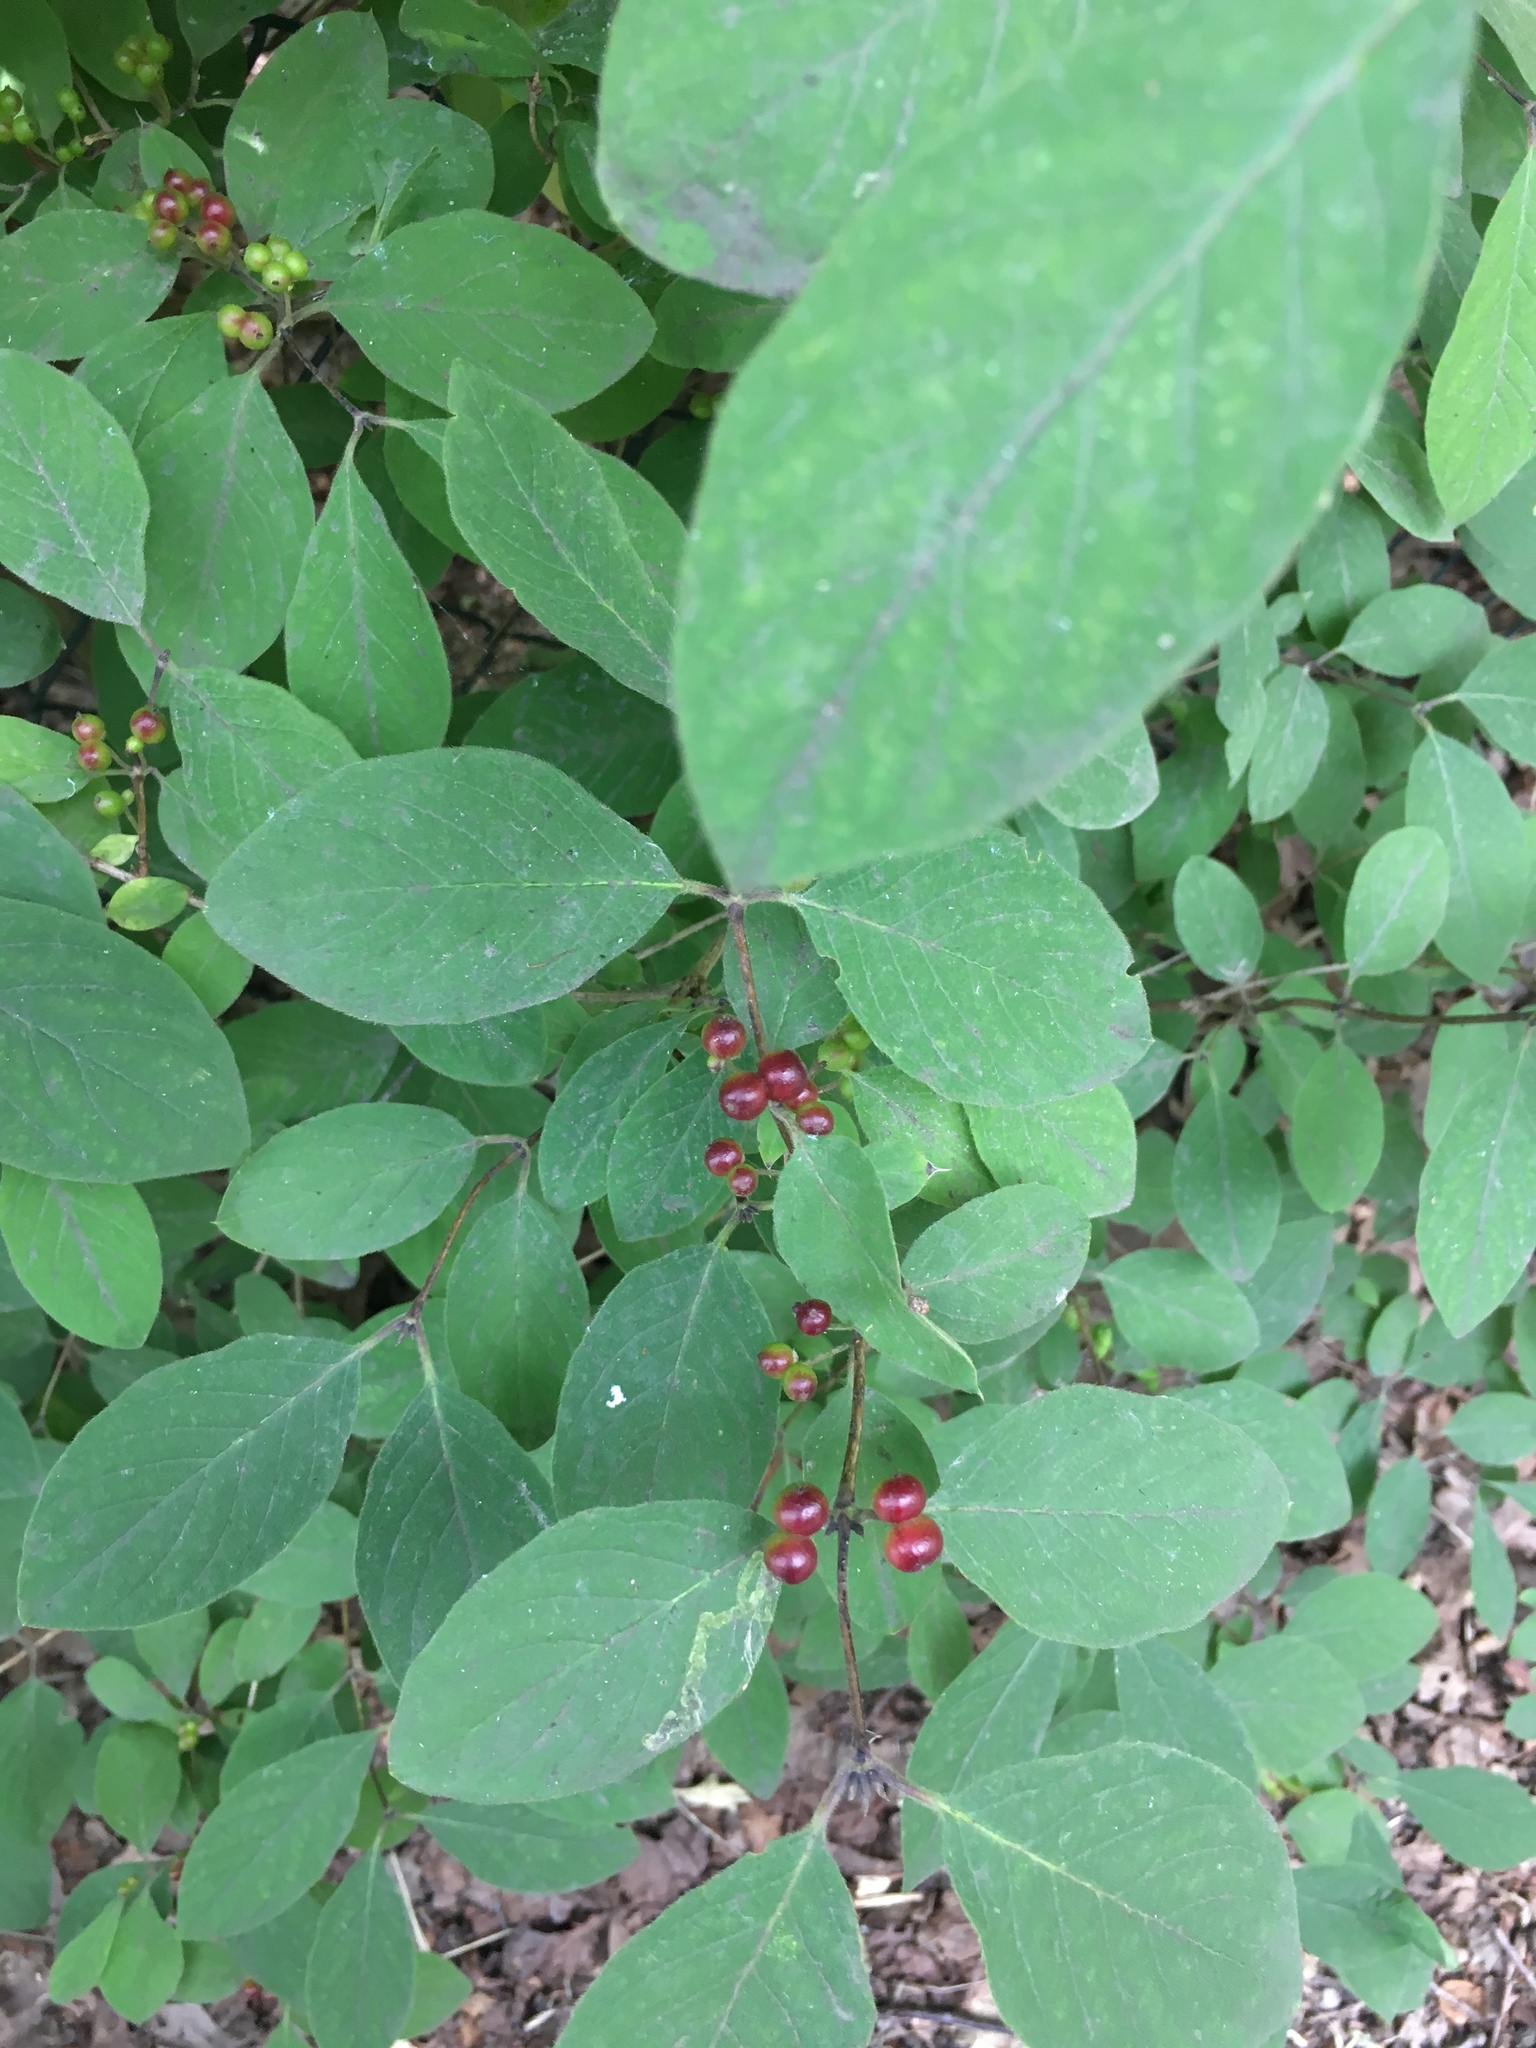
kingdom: Plantae
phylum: Tracheophyta
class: Magnoliopsida
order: Dipsacales
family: Caprifoliaceae
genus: Lonicera
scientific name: Lonicera xylosteum
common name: Fly honeysuckle
